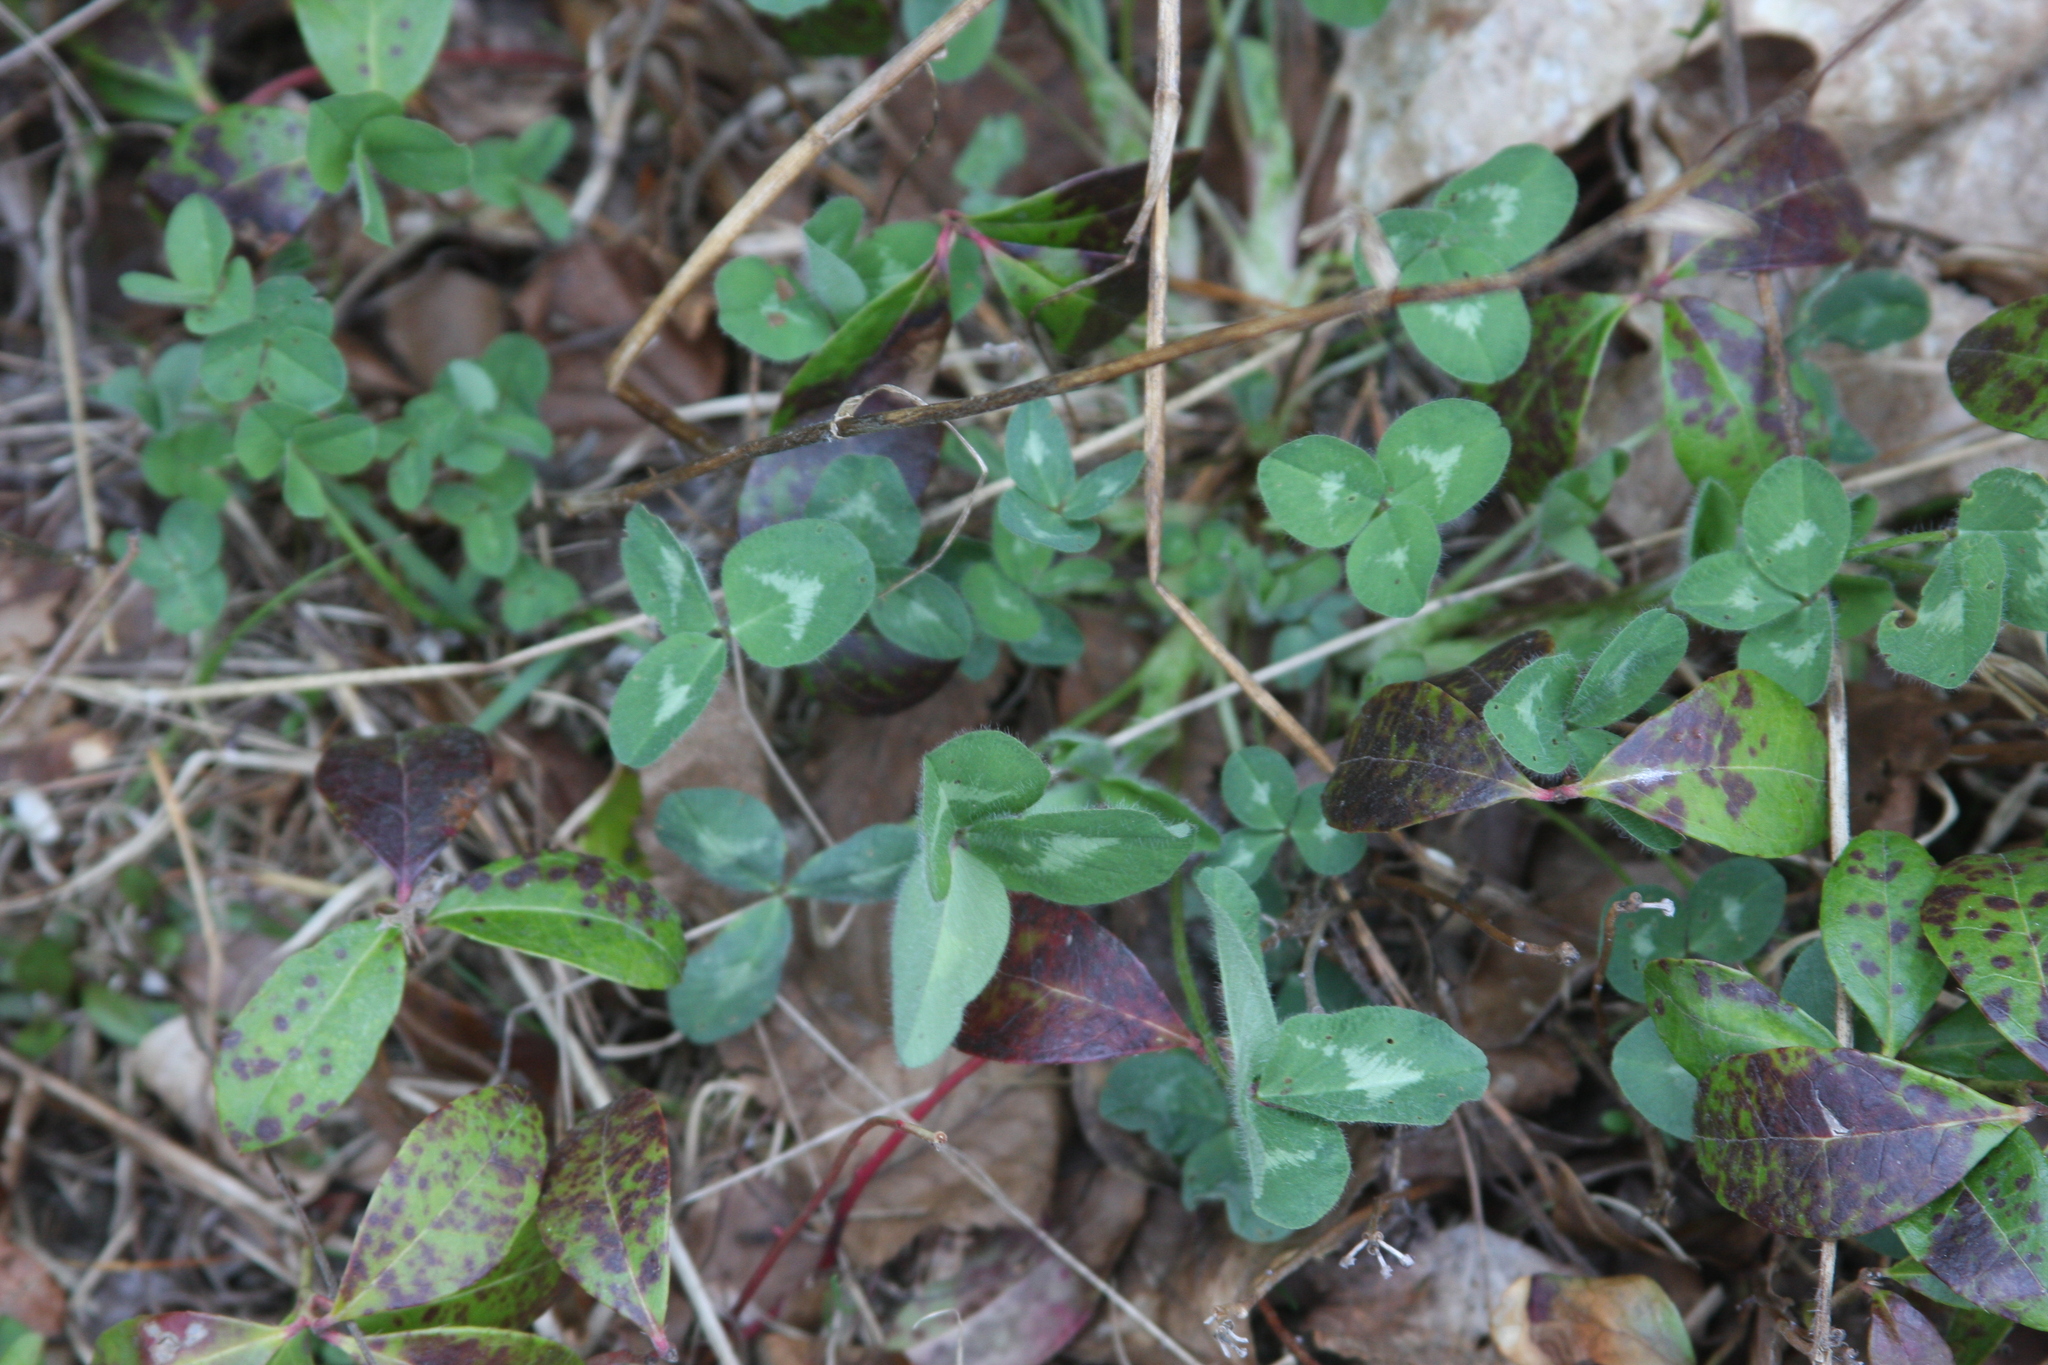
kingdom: Plantae
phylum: Tracheophyta
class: Magnoliopsida
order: Fabales
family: Fabaceae
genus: Trifolium
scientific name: Trifolium pratense
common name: Red clover
